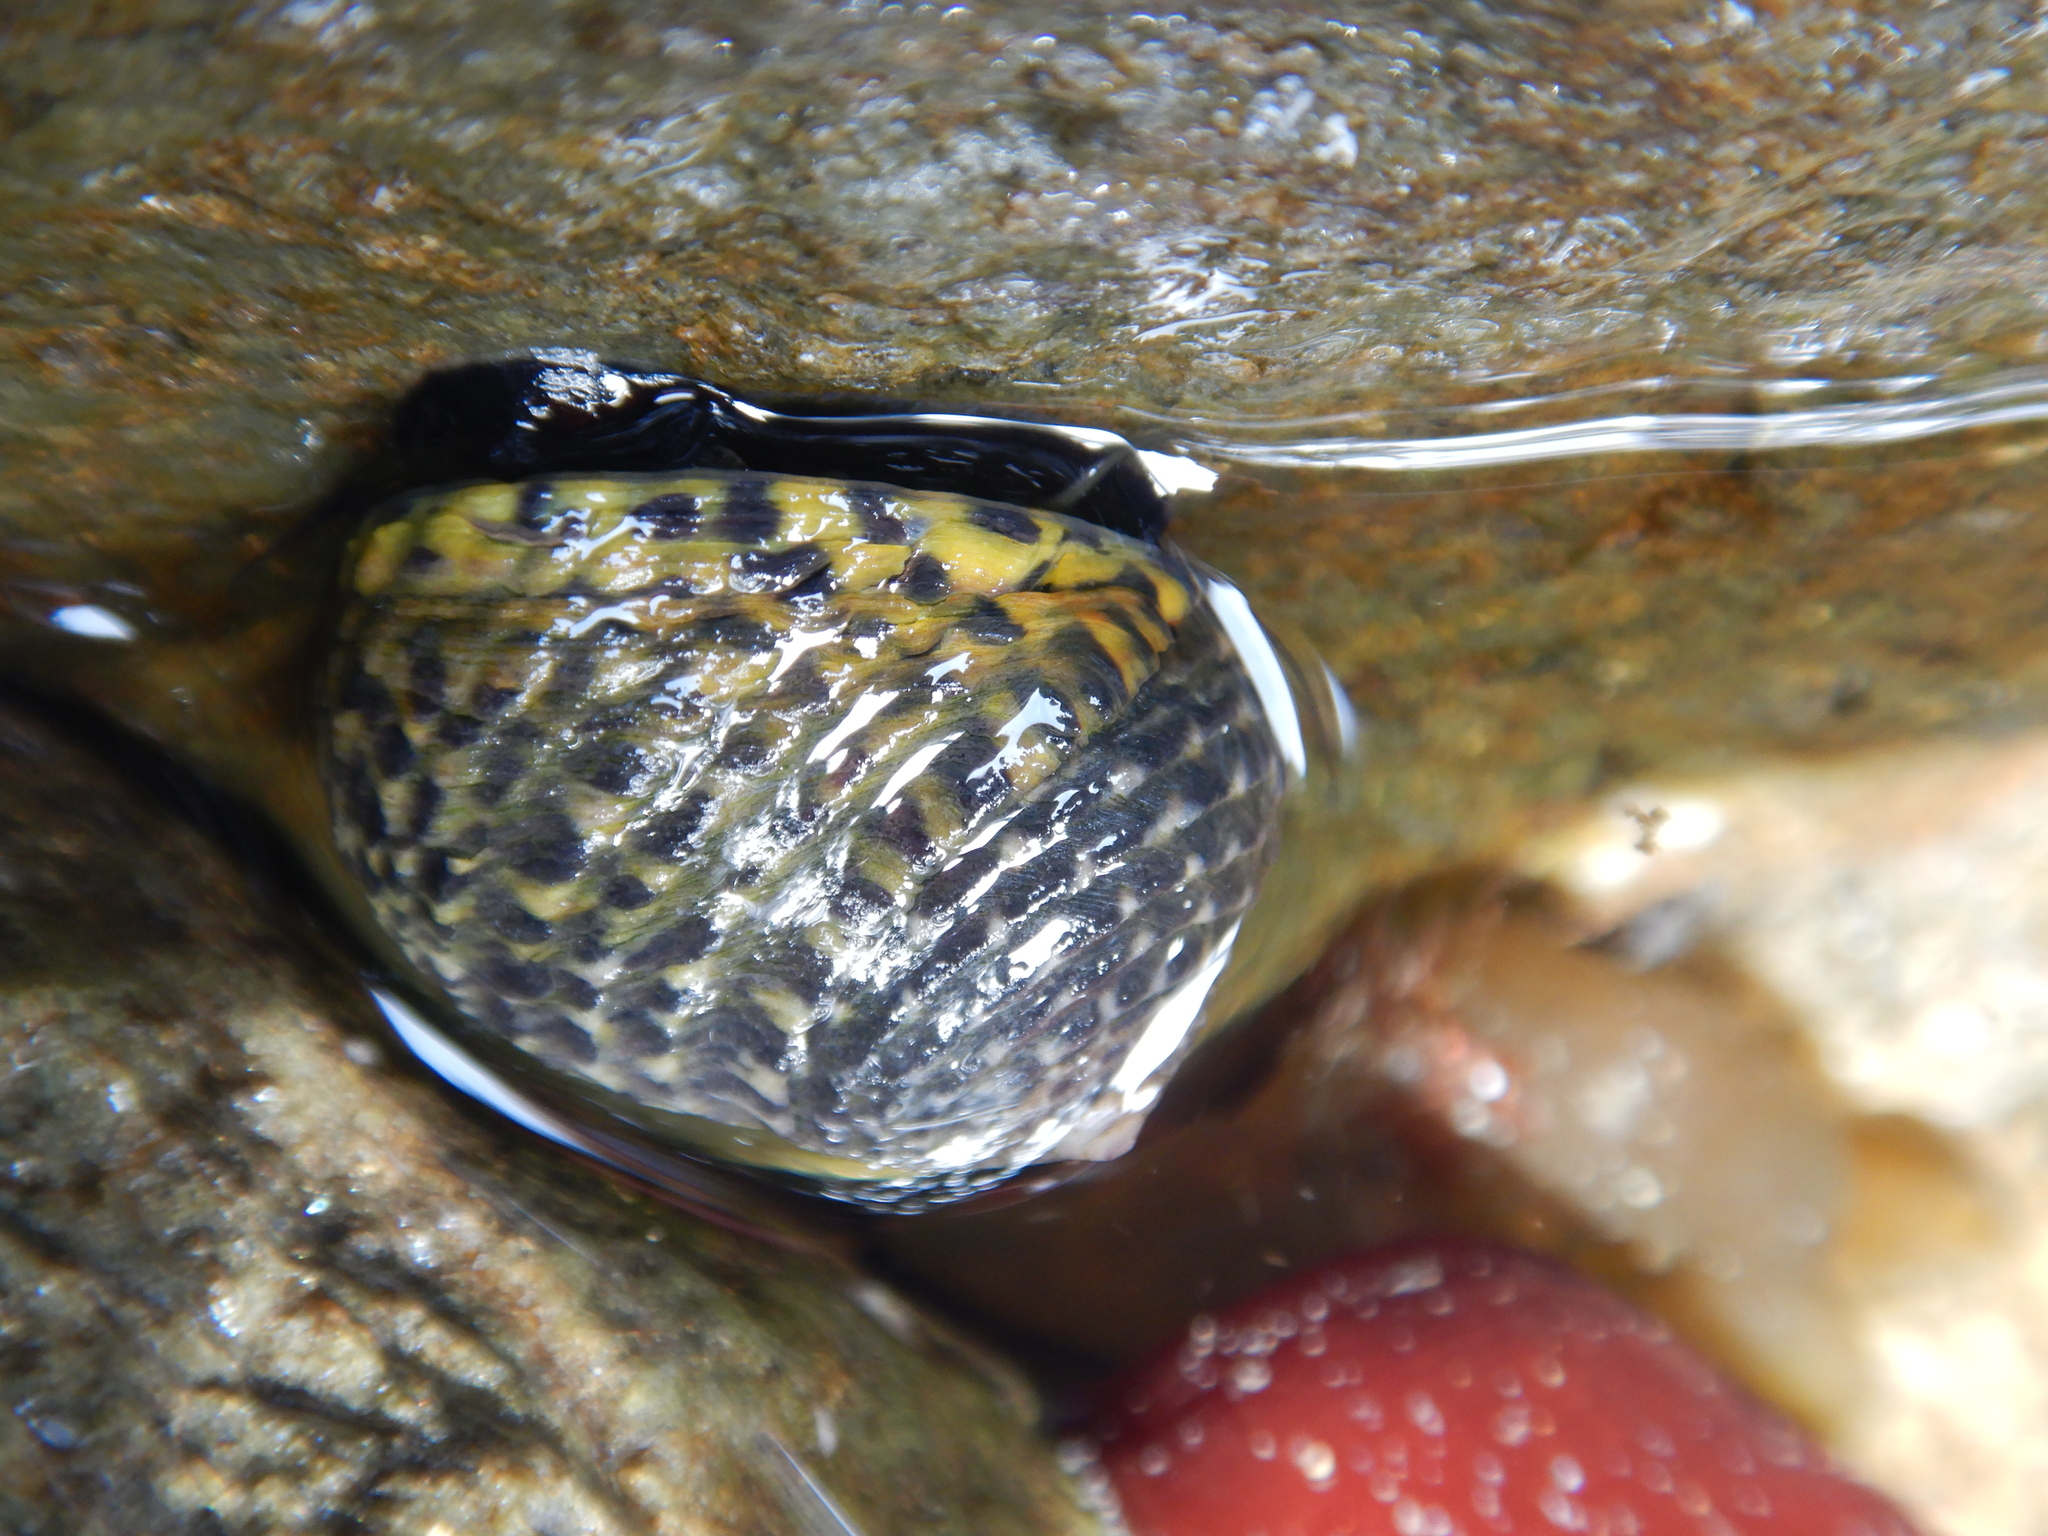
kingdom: Animalia
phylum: Mollusca
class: Gastropoda
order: Trochida
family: Trochidae
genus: Diloma
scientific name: Diloma concameratum
